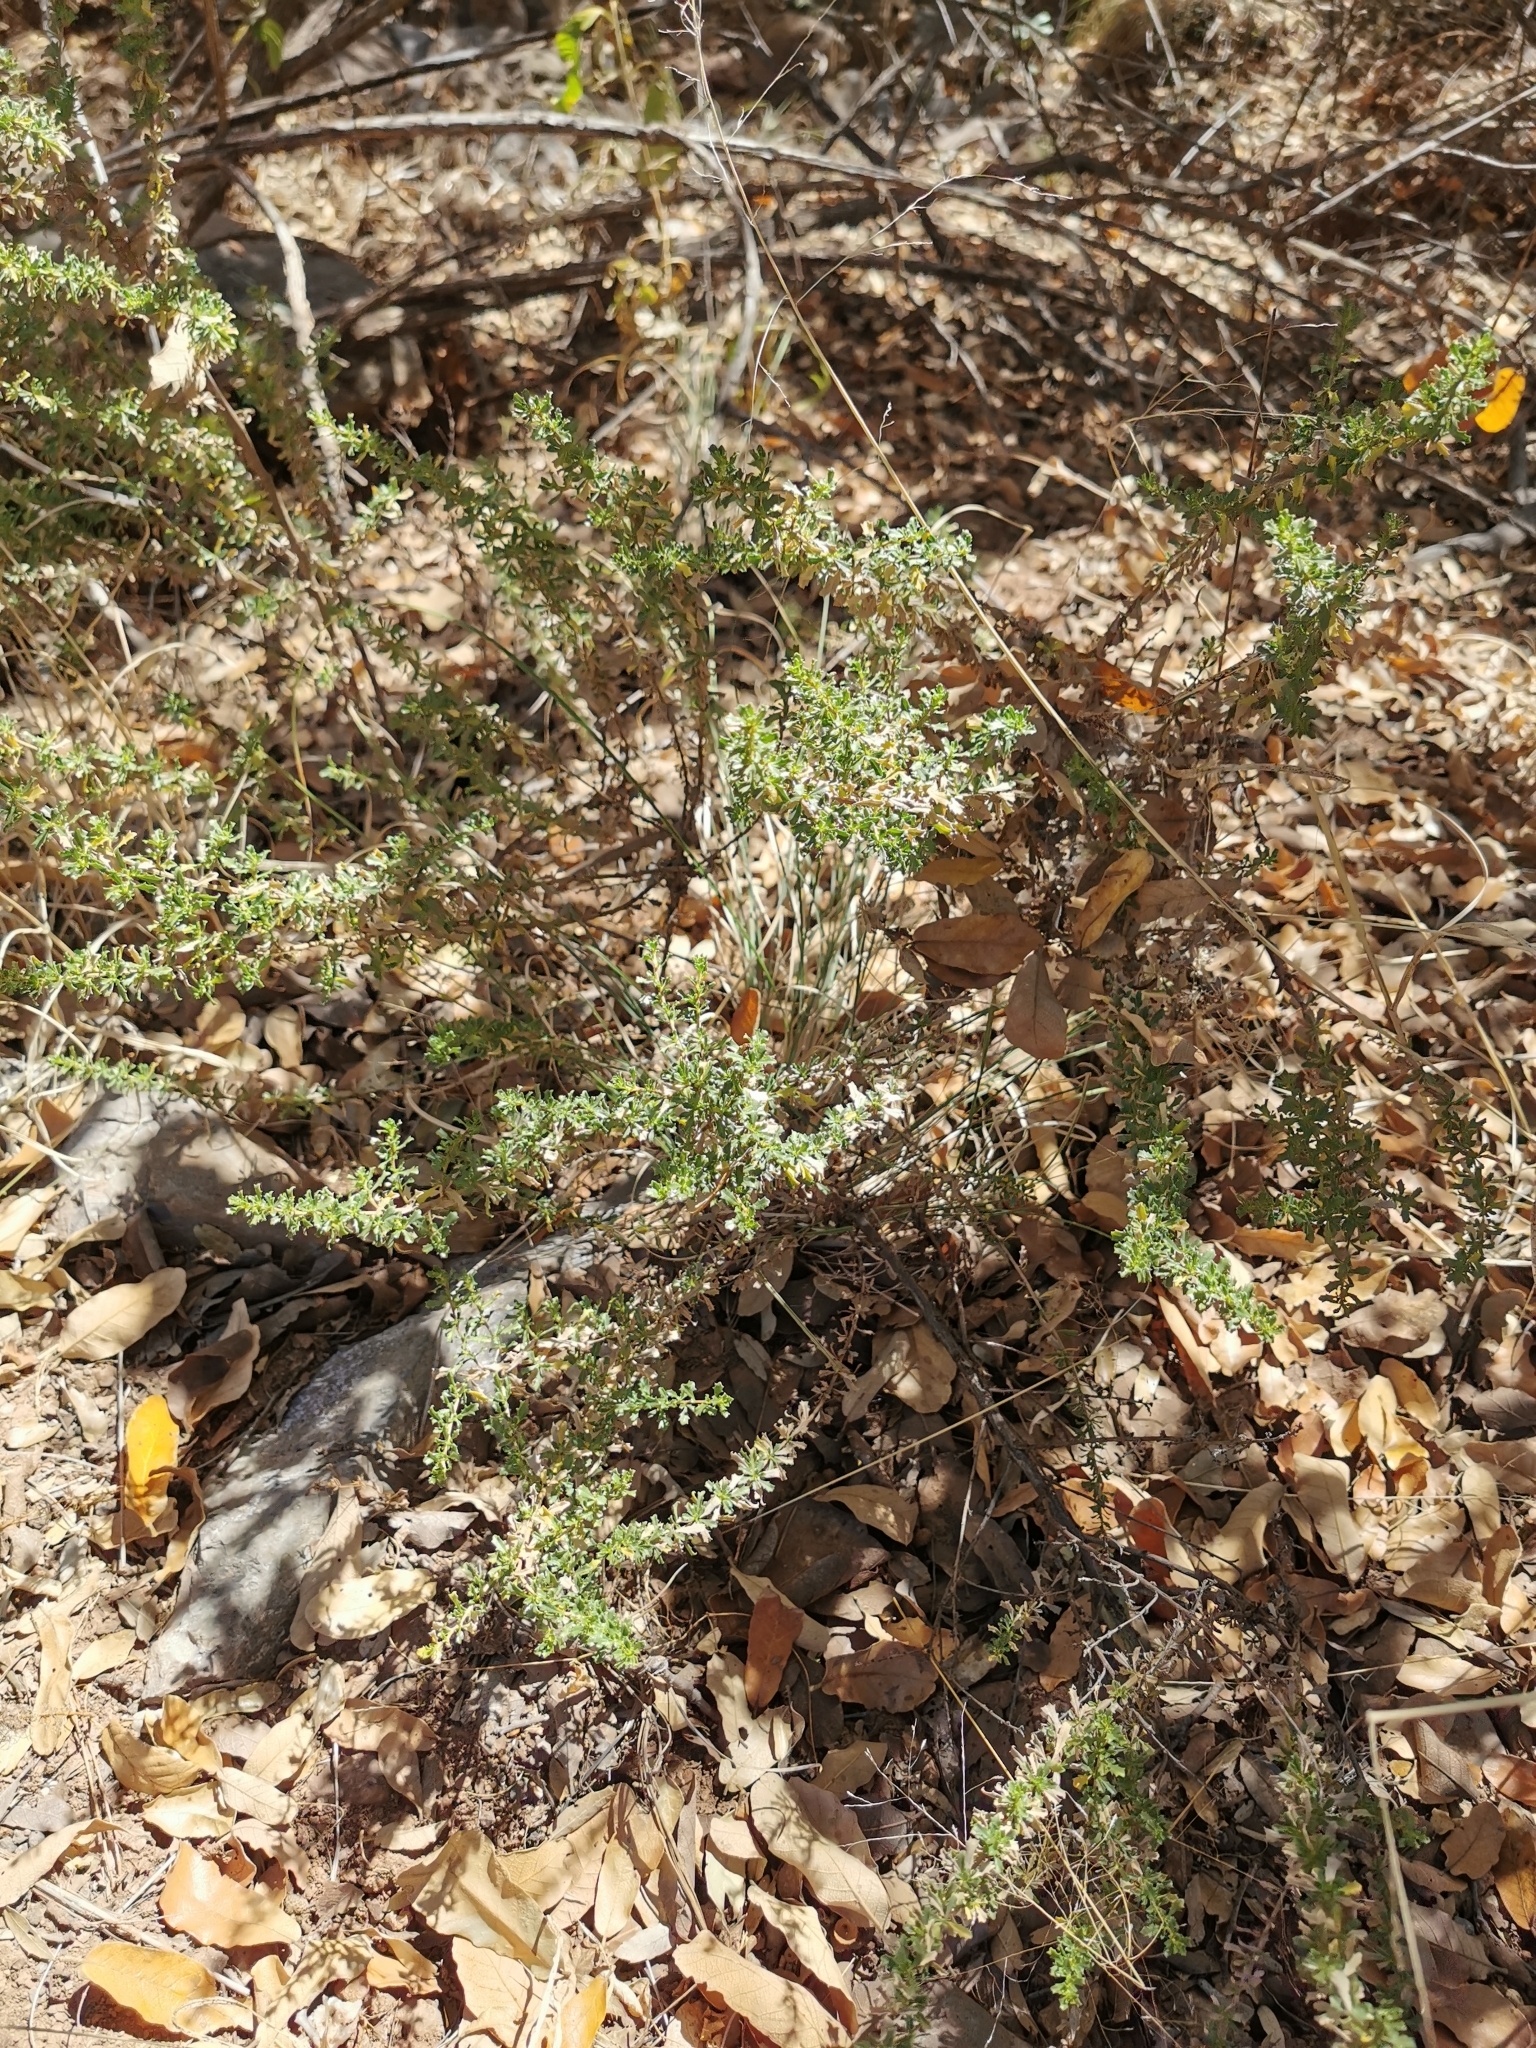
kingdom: Plantae
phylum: Tracheophyta
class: Magnoliopsida
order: Asterales
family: Asteraceae
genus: Baccharis
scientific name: Baccharis pteronioides
